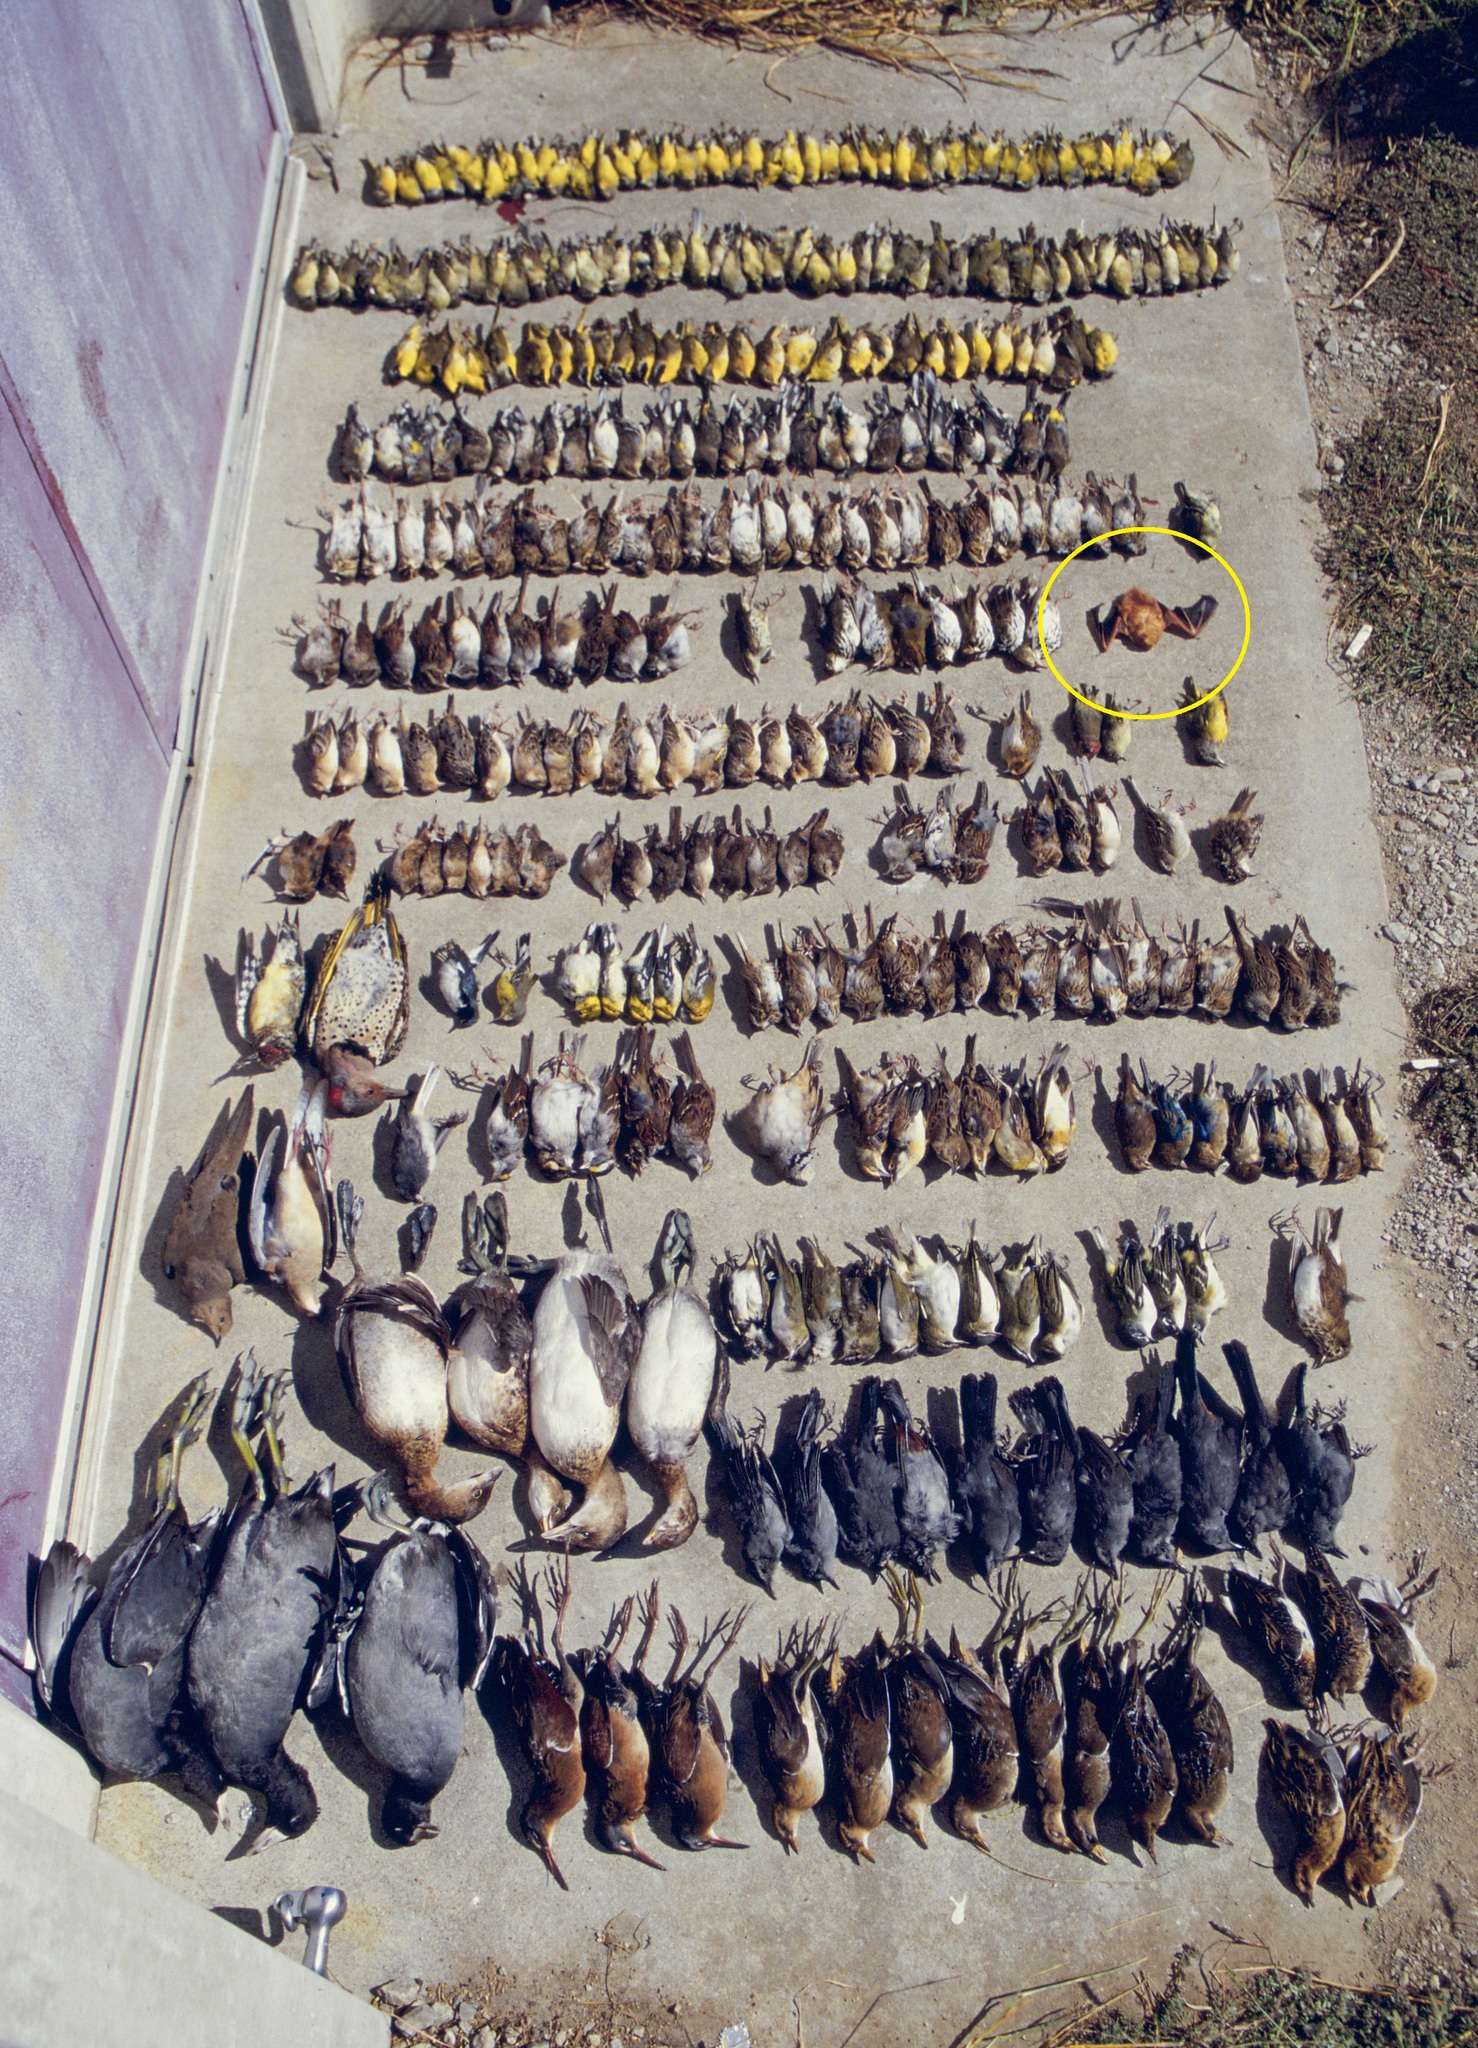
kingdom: Animalia
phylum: Chordata
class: Mammalia
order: Chiroptera
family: Vespertilionidae
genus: Lasiurus
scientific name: Lasiurus borealis
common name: Eastern red bat
